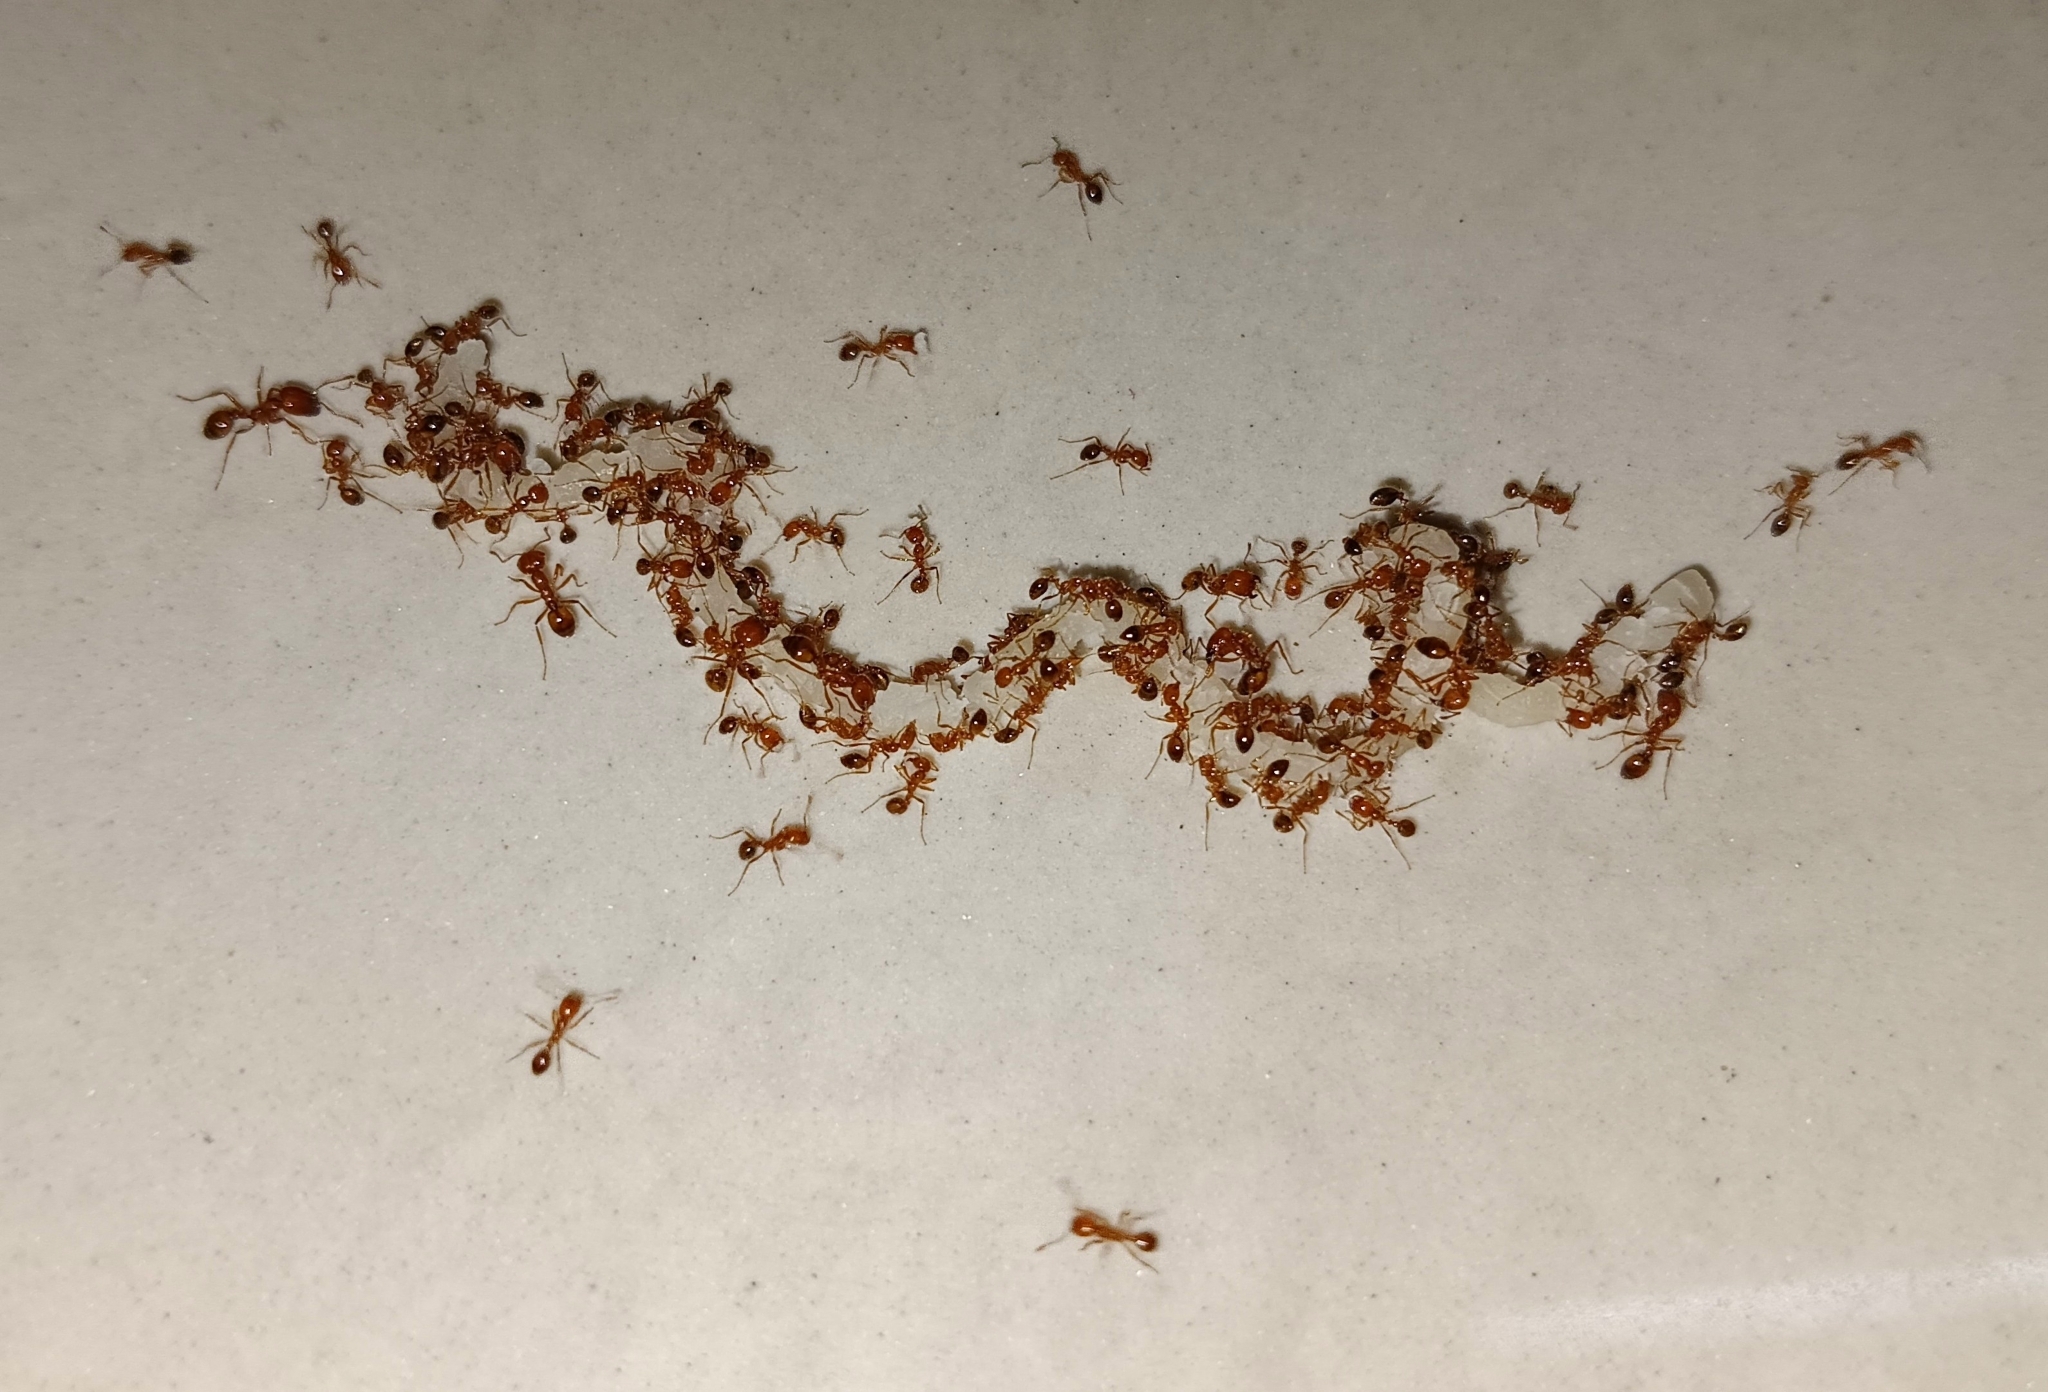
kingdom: Animalia
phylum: Arthropoda
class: Insecta
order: Hymenoptera
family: Formicidae
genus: Solenopsis
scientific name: Solenopsis geminata
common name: Tropical fire ant
